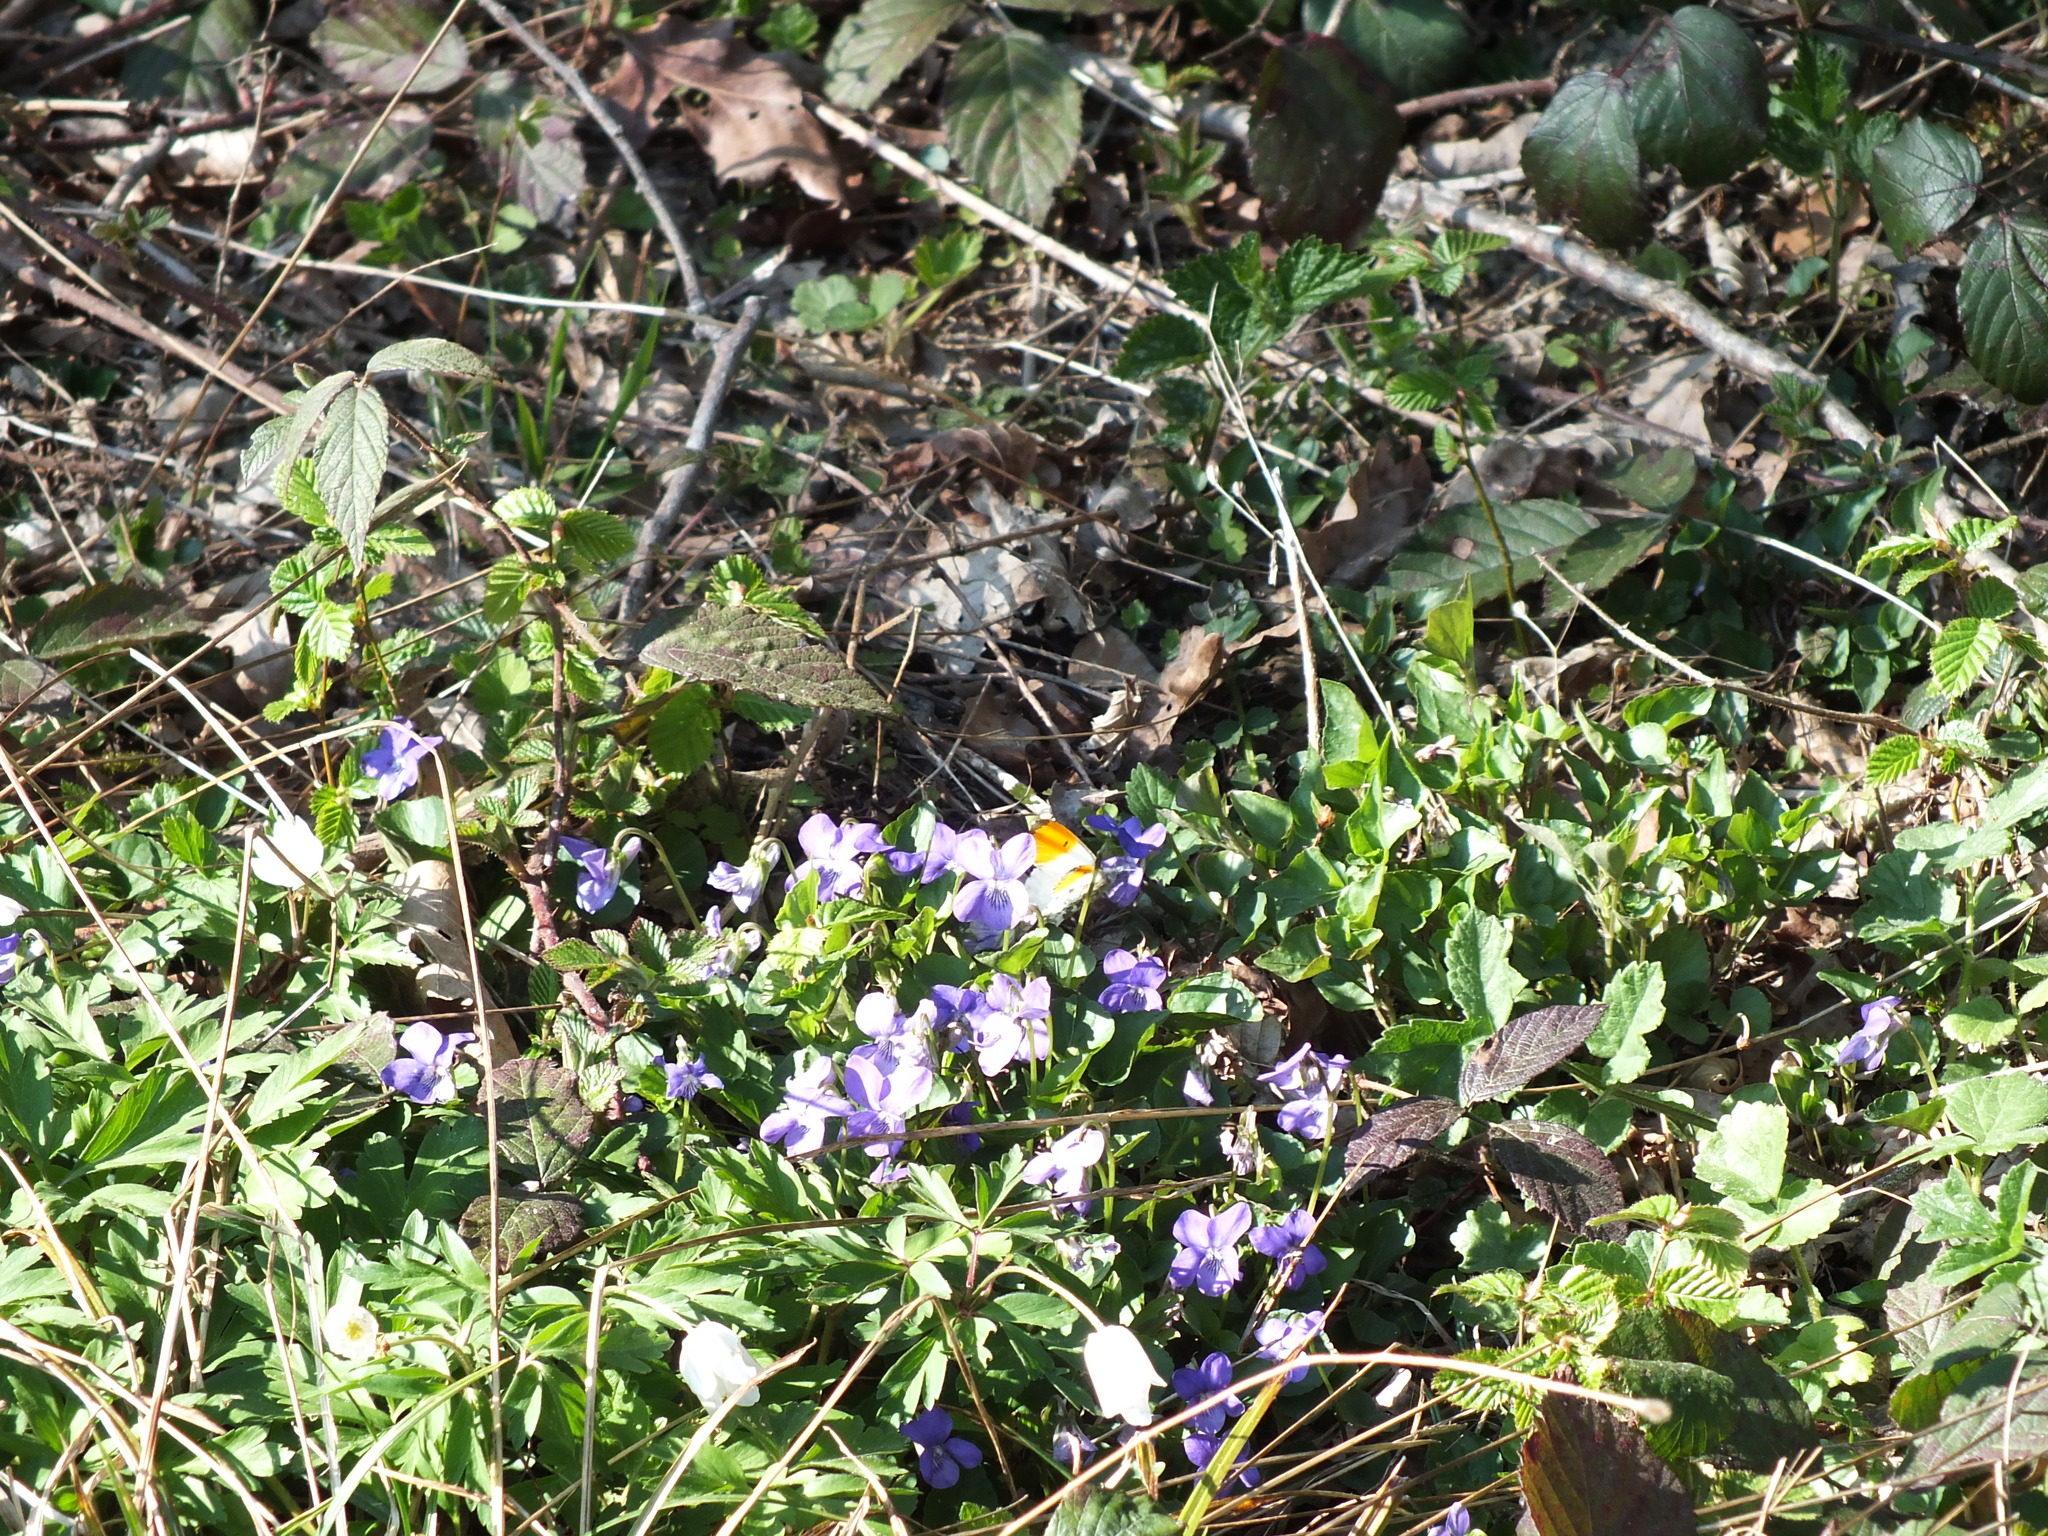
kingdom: Animalia
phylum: Arthropoda
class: Insecta
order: Lepidoptera
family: Pieridae
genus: Anthocharis
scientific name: Anthocharis cardamines
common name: Orange-tip
